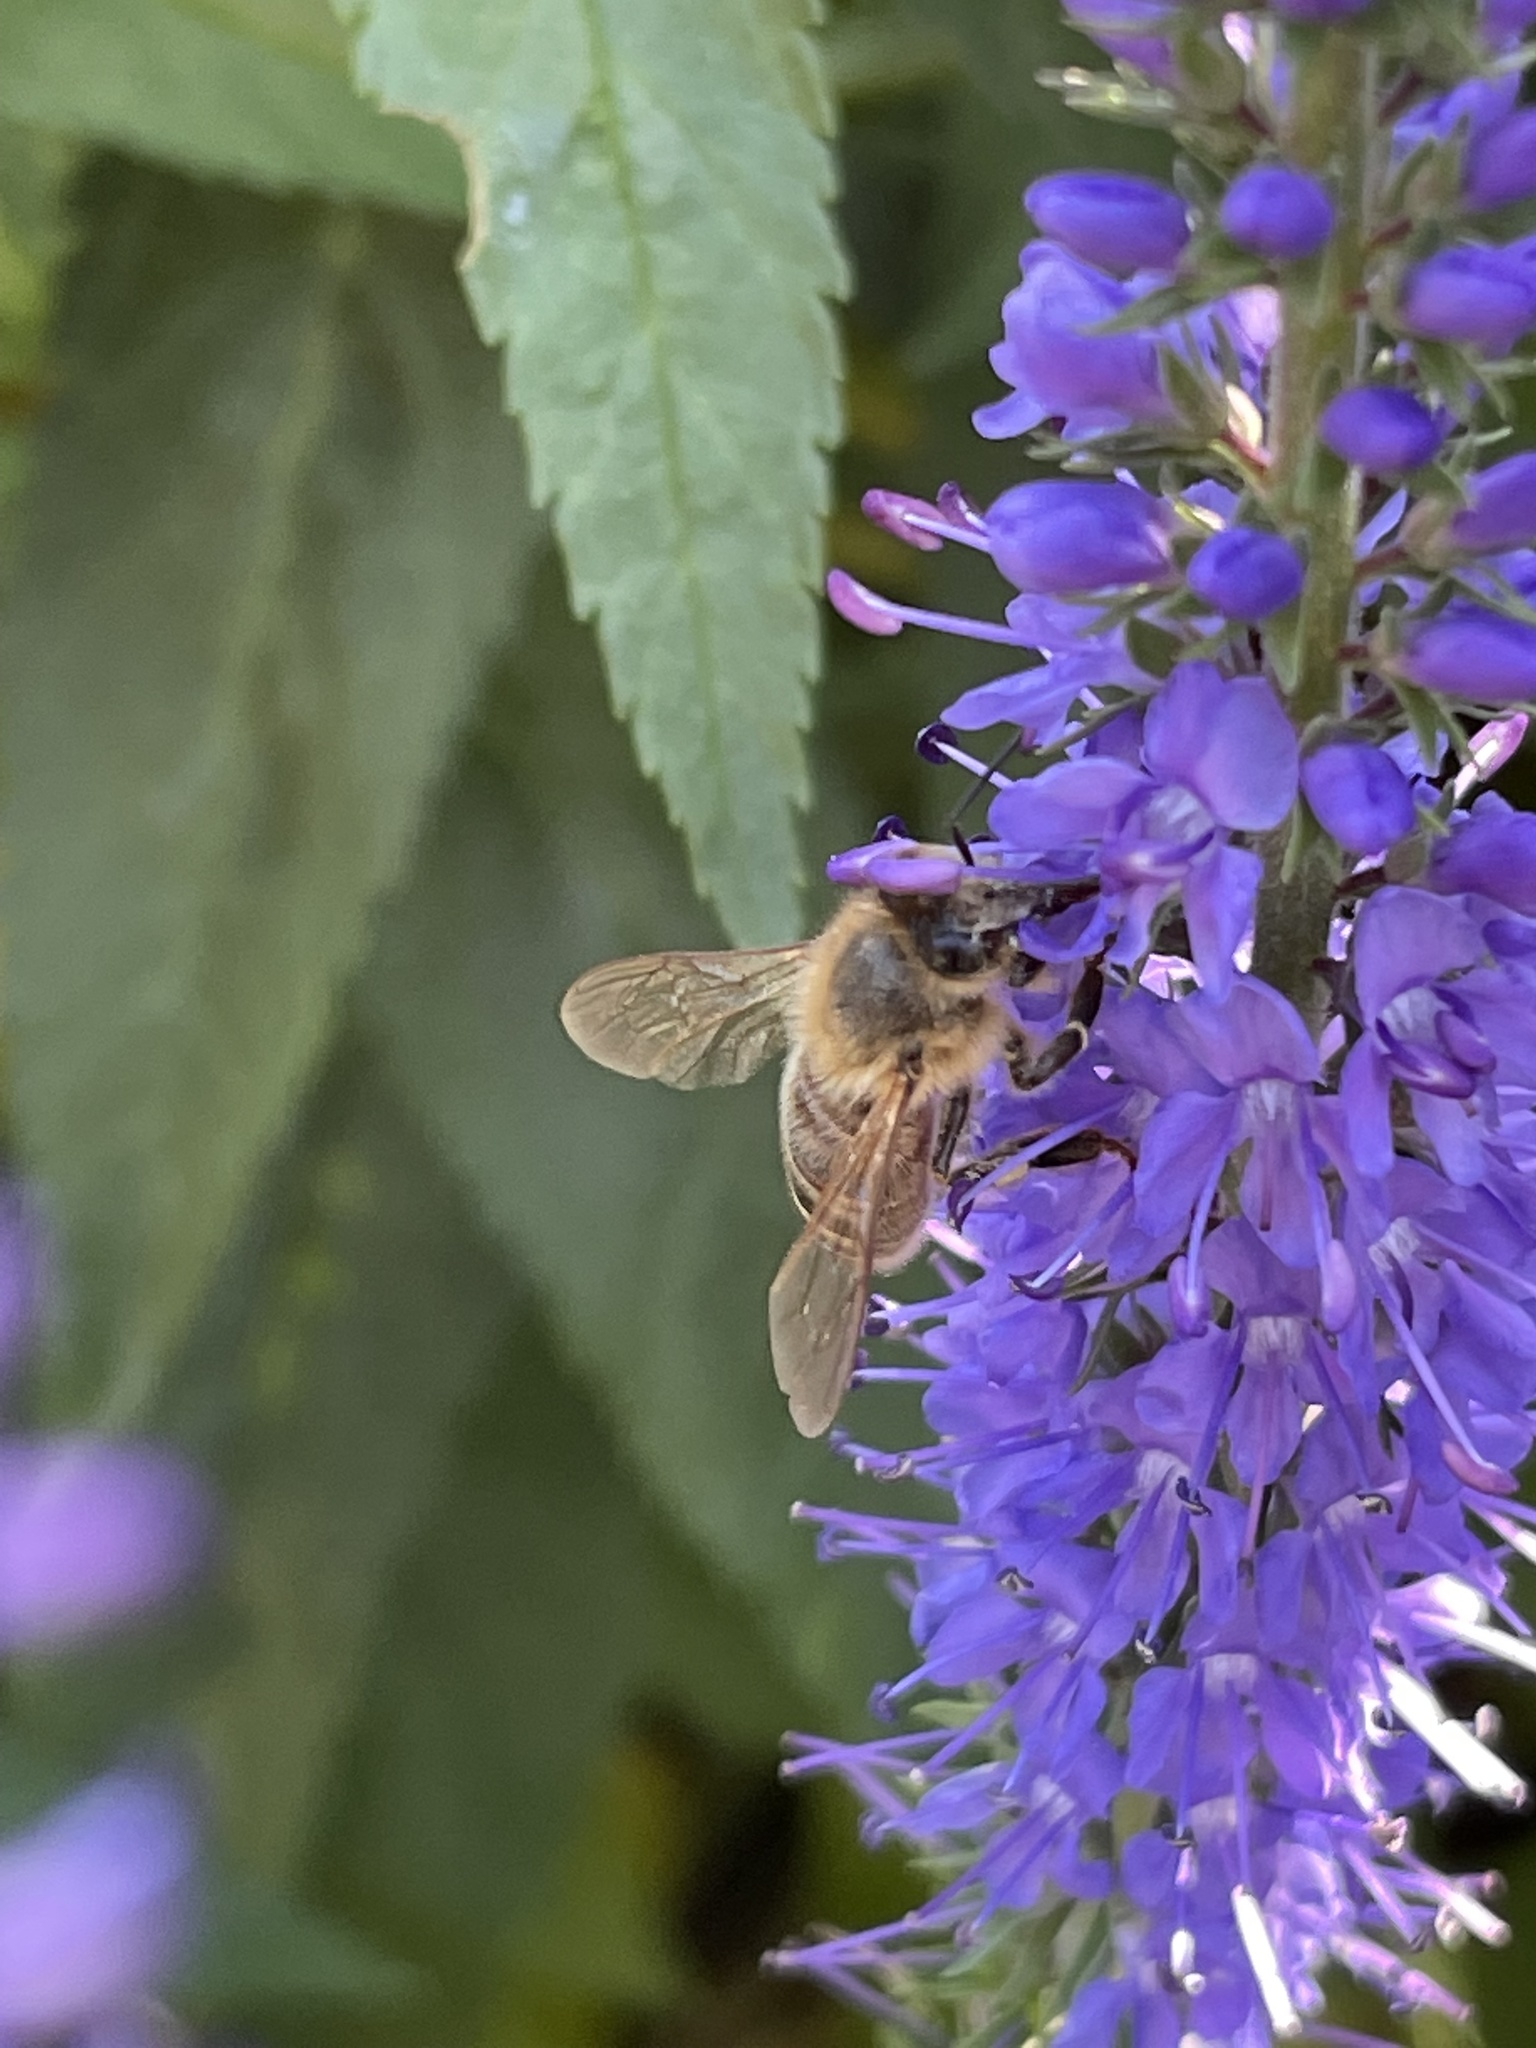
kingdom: Animalia
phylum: Arthropoda
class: Insecta
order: Hymenoptera
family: Apidae
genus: Apis
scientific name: Apis mellifera
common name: Honey bee
